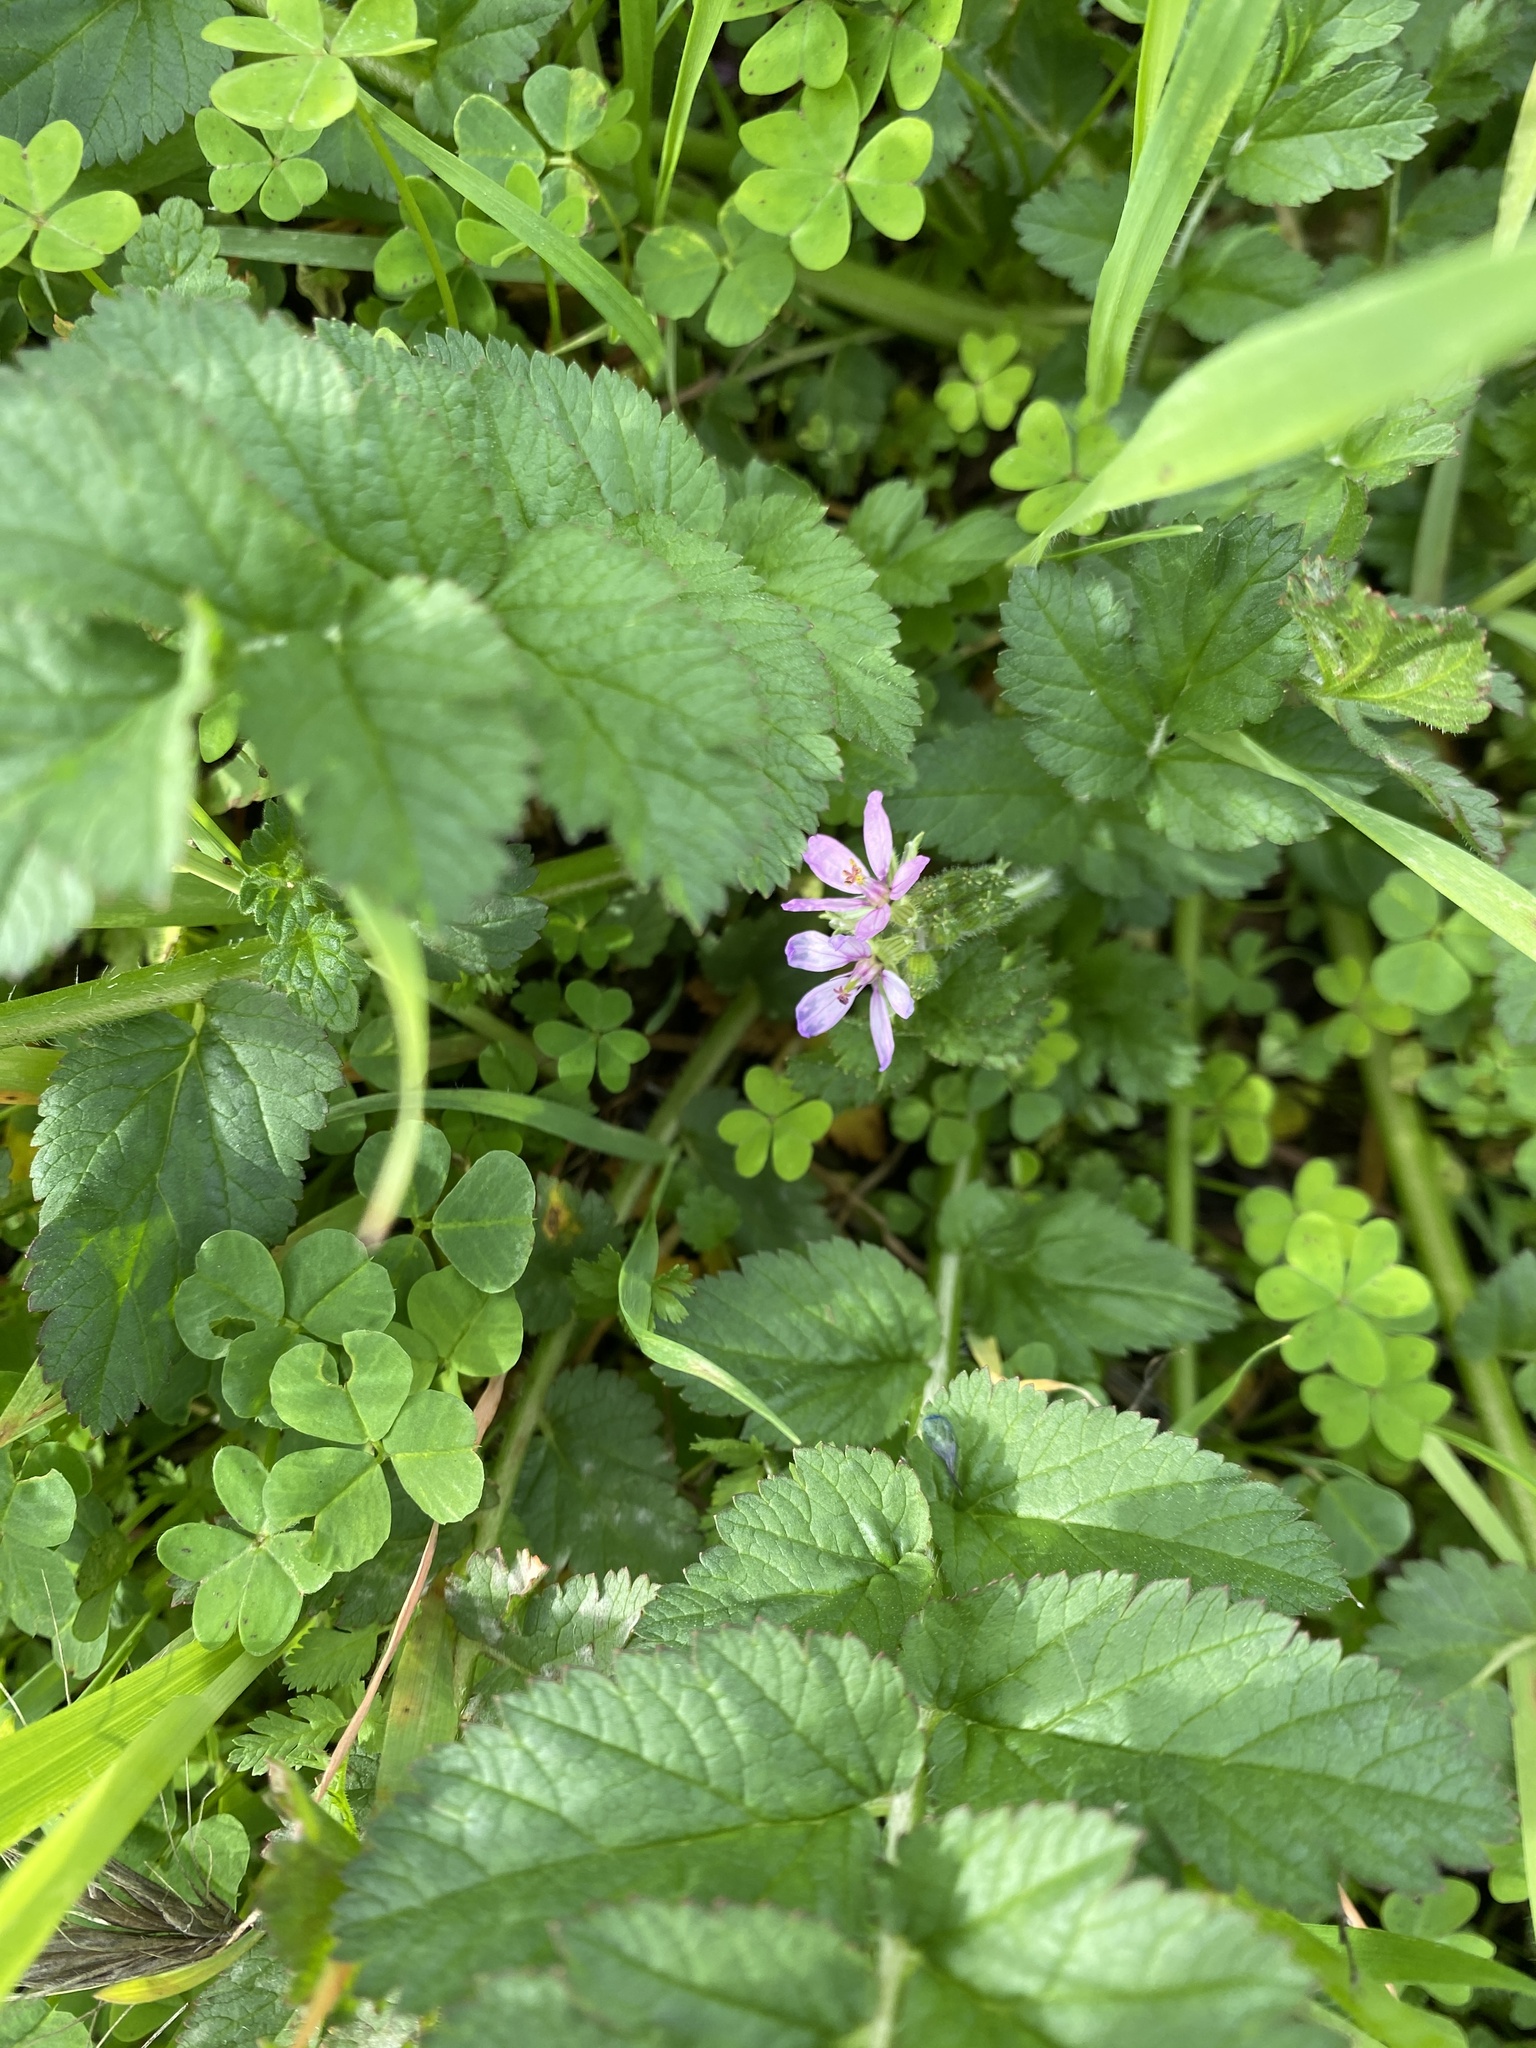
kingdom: Plantae
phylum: Tracheophyta
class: Magnoliopsida
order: Geraniales
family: Geraniaceae
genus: Erodium
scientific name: Erodium moschatum
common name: Musk stork's-bill
